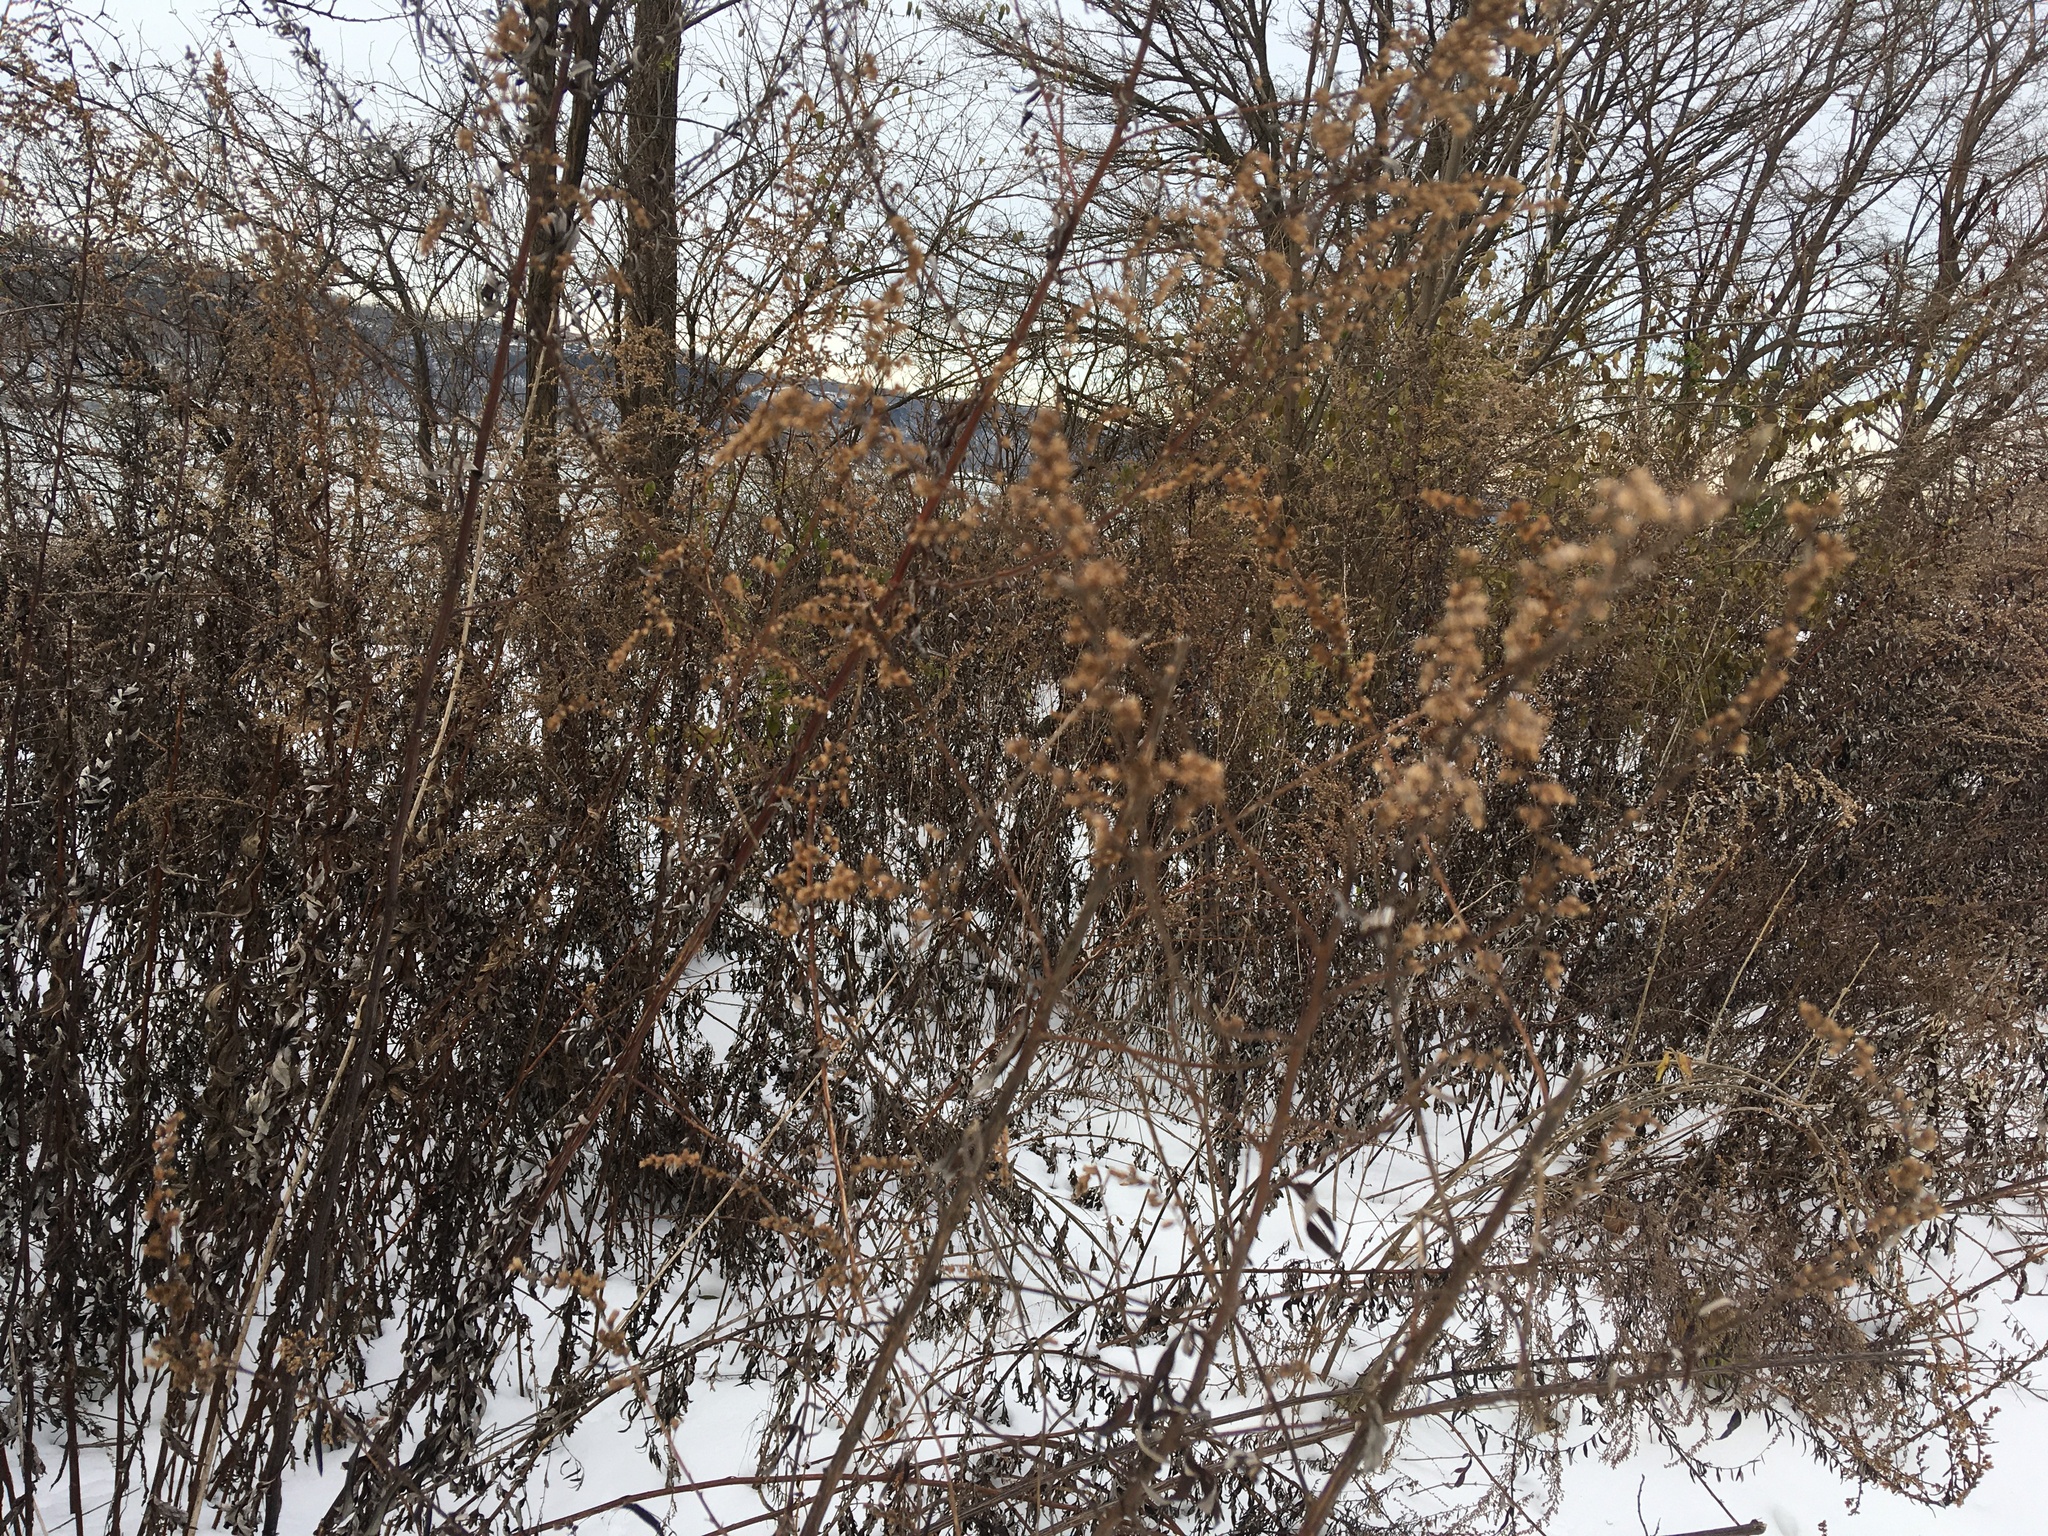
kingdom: Plantae
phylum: Tracheophyta
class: Magnoliopsida
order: Asterales
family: Asteraceae
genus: Artemisia
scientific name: Artemisia vulgaris
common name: Mugwort
